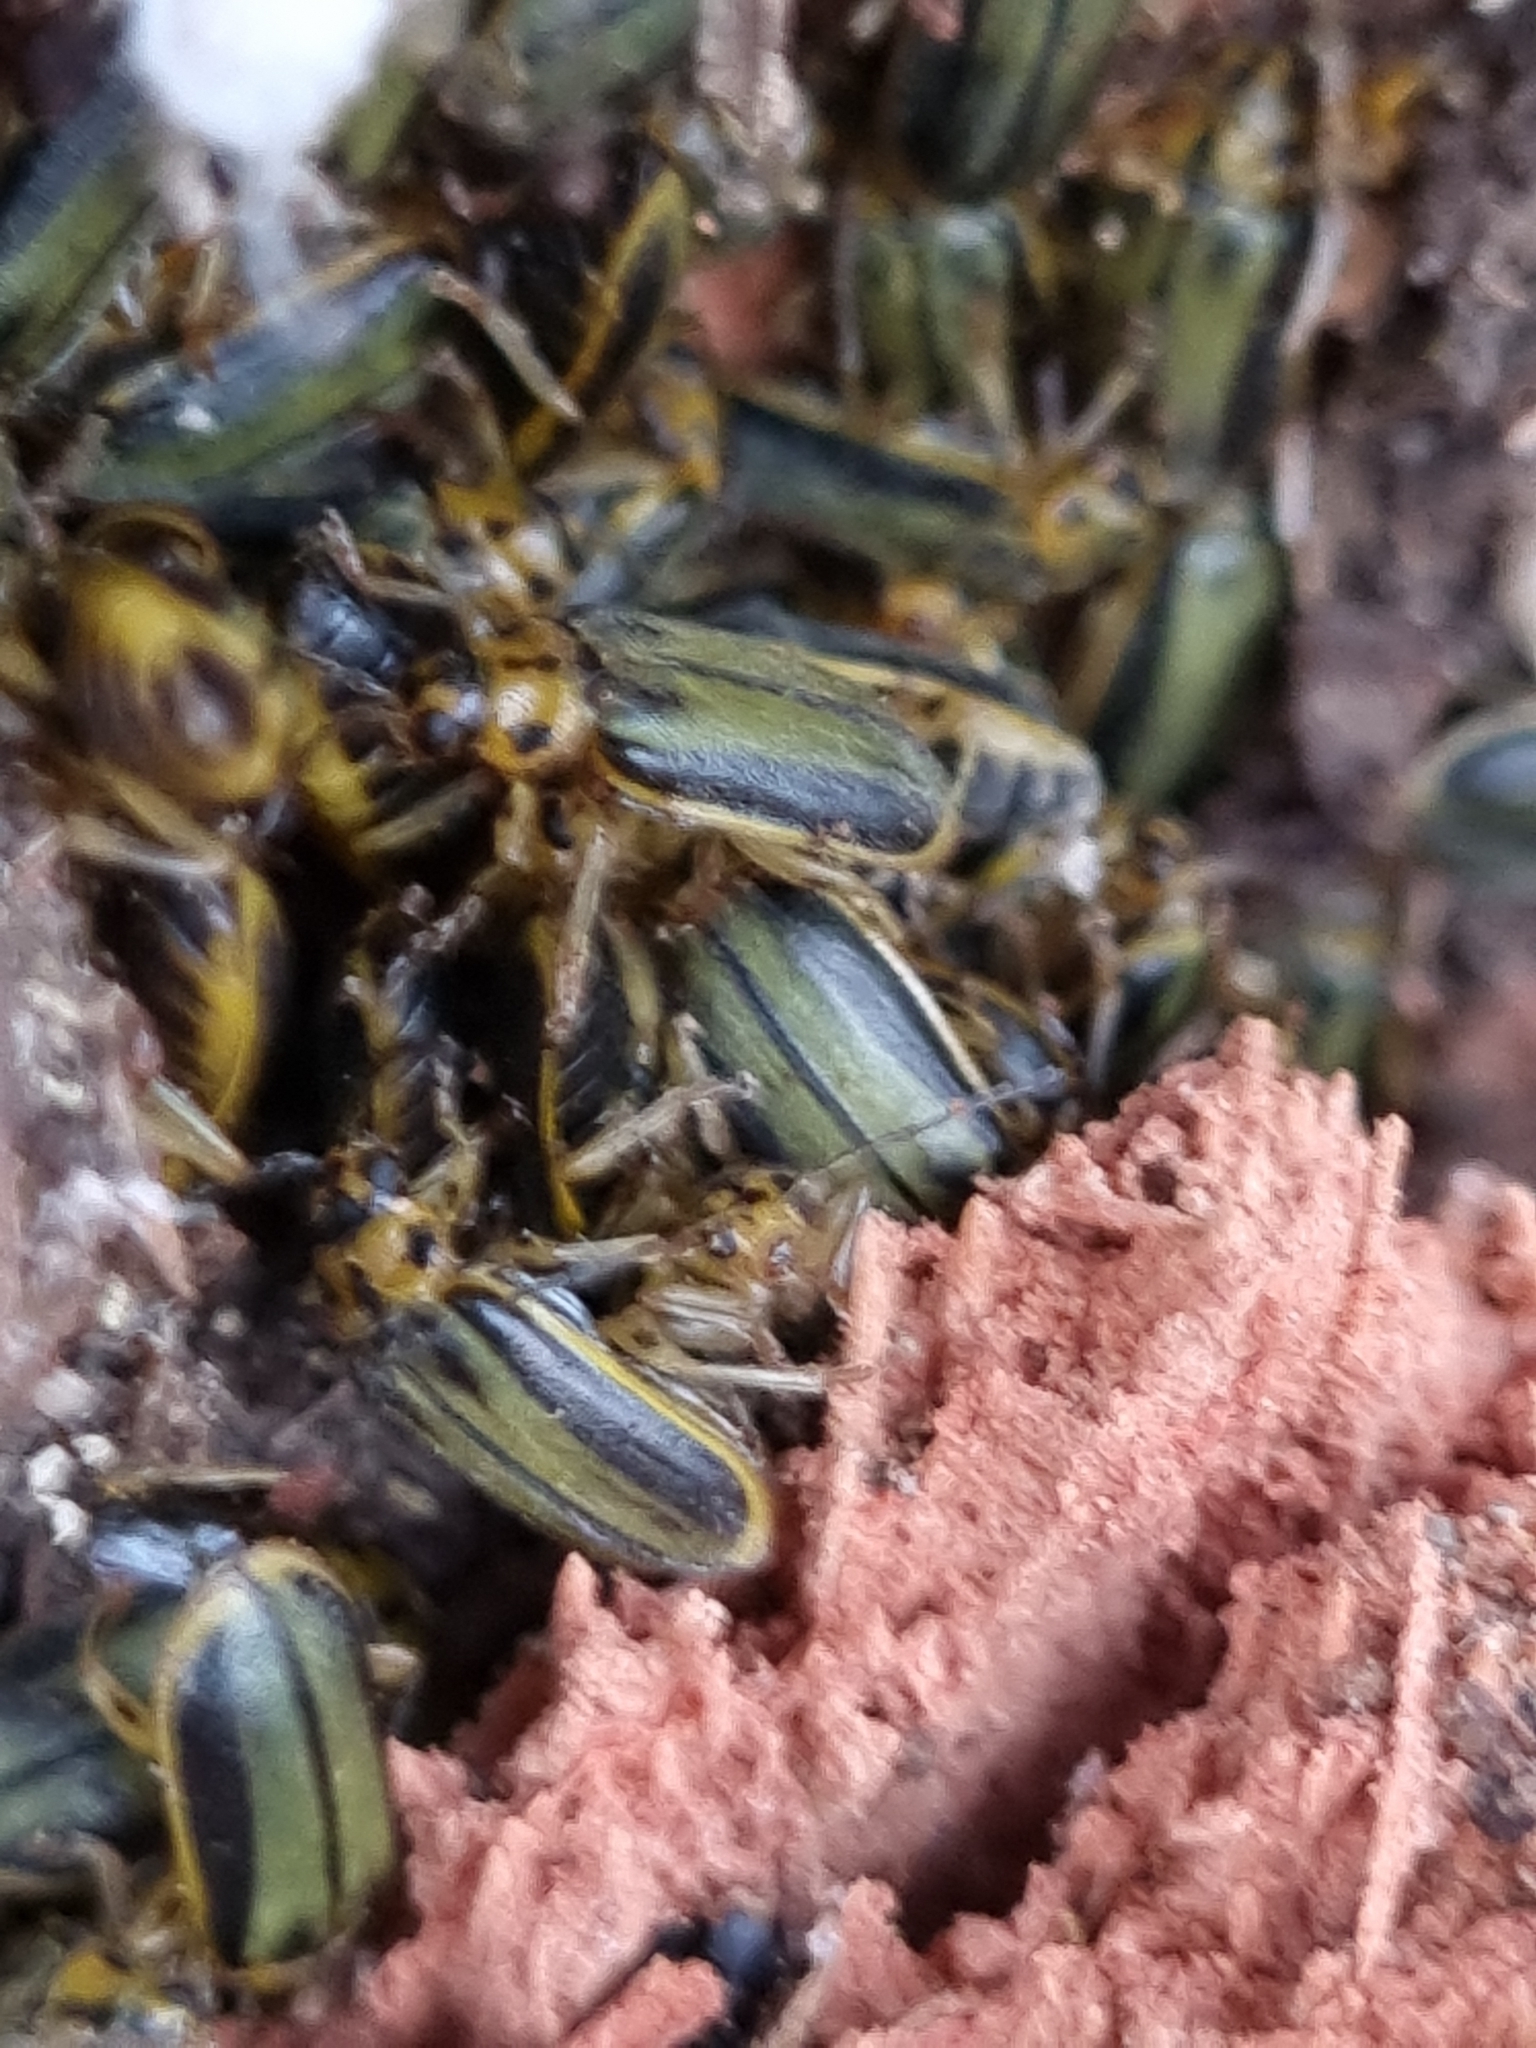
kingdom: Animalia
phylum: Arthropoda
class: Insecta
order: Coleoptera
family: Chrysomelidae
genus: Xanthogaleruca
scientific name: Xanthogaleruca luteola
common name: Elm leaf beetle
